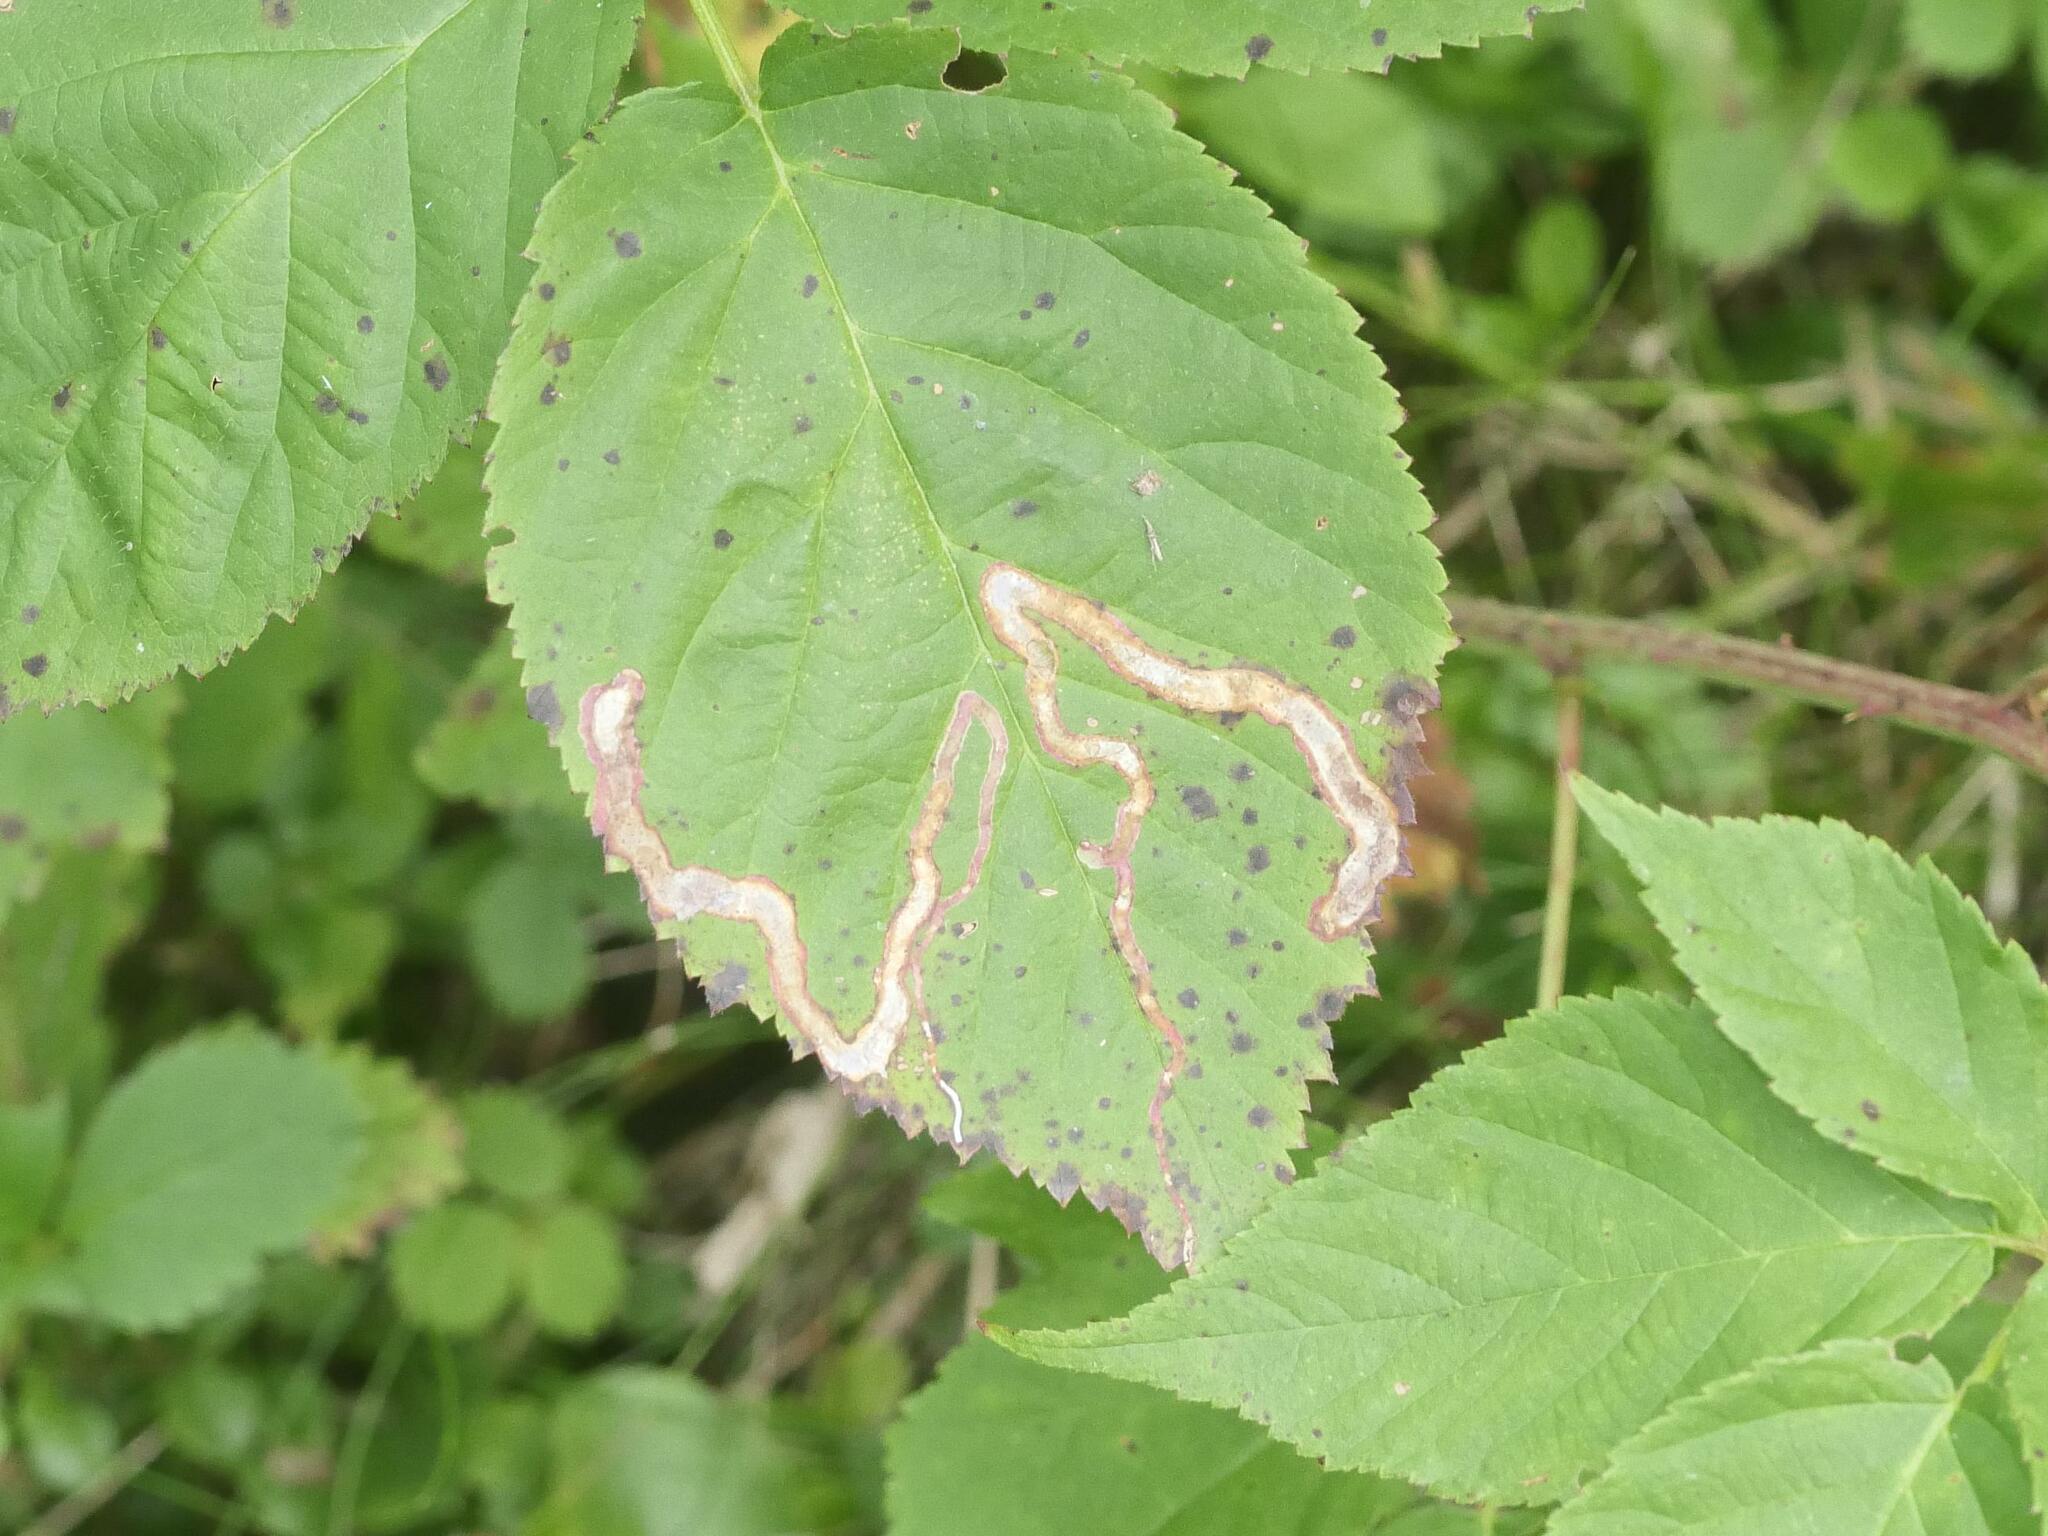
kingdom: Animalia
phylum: Arthropoda
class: Insecta
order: Diptera
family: Agromyzidae
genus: Agromyza
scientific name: Agromyza vockerothi
